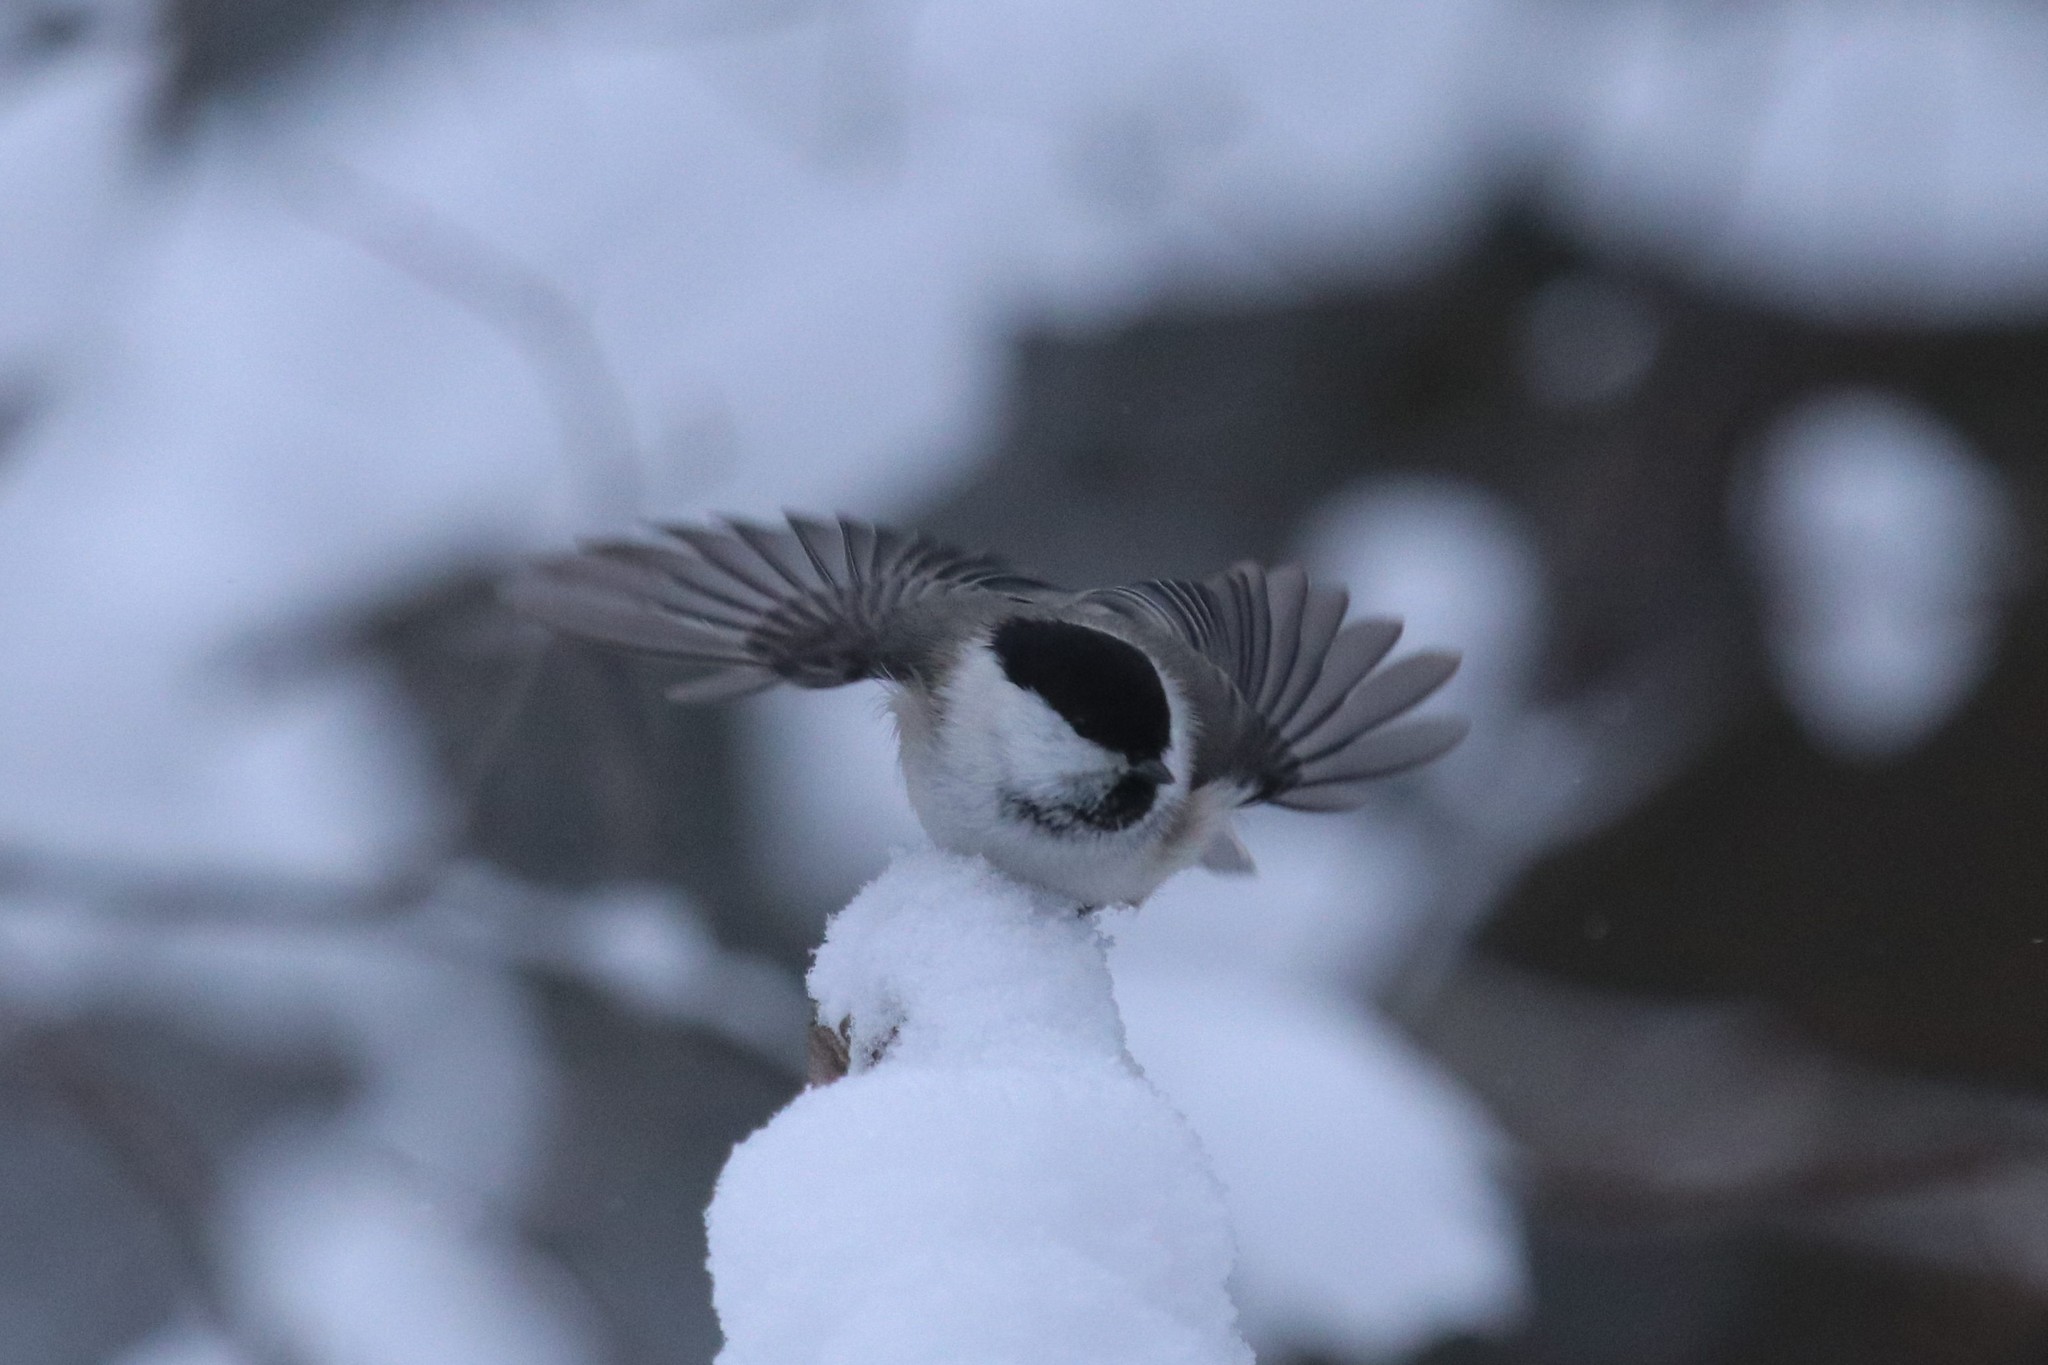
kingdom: Animalia
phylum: Chordata
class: Aves
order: Passeriformes
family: Paridae
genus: Poecile
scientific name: Poecile montanus
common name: Willow tit
